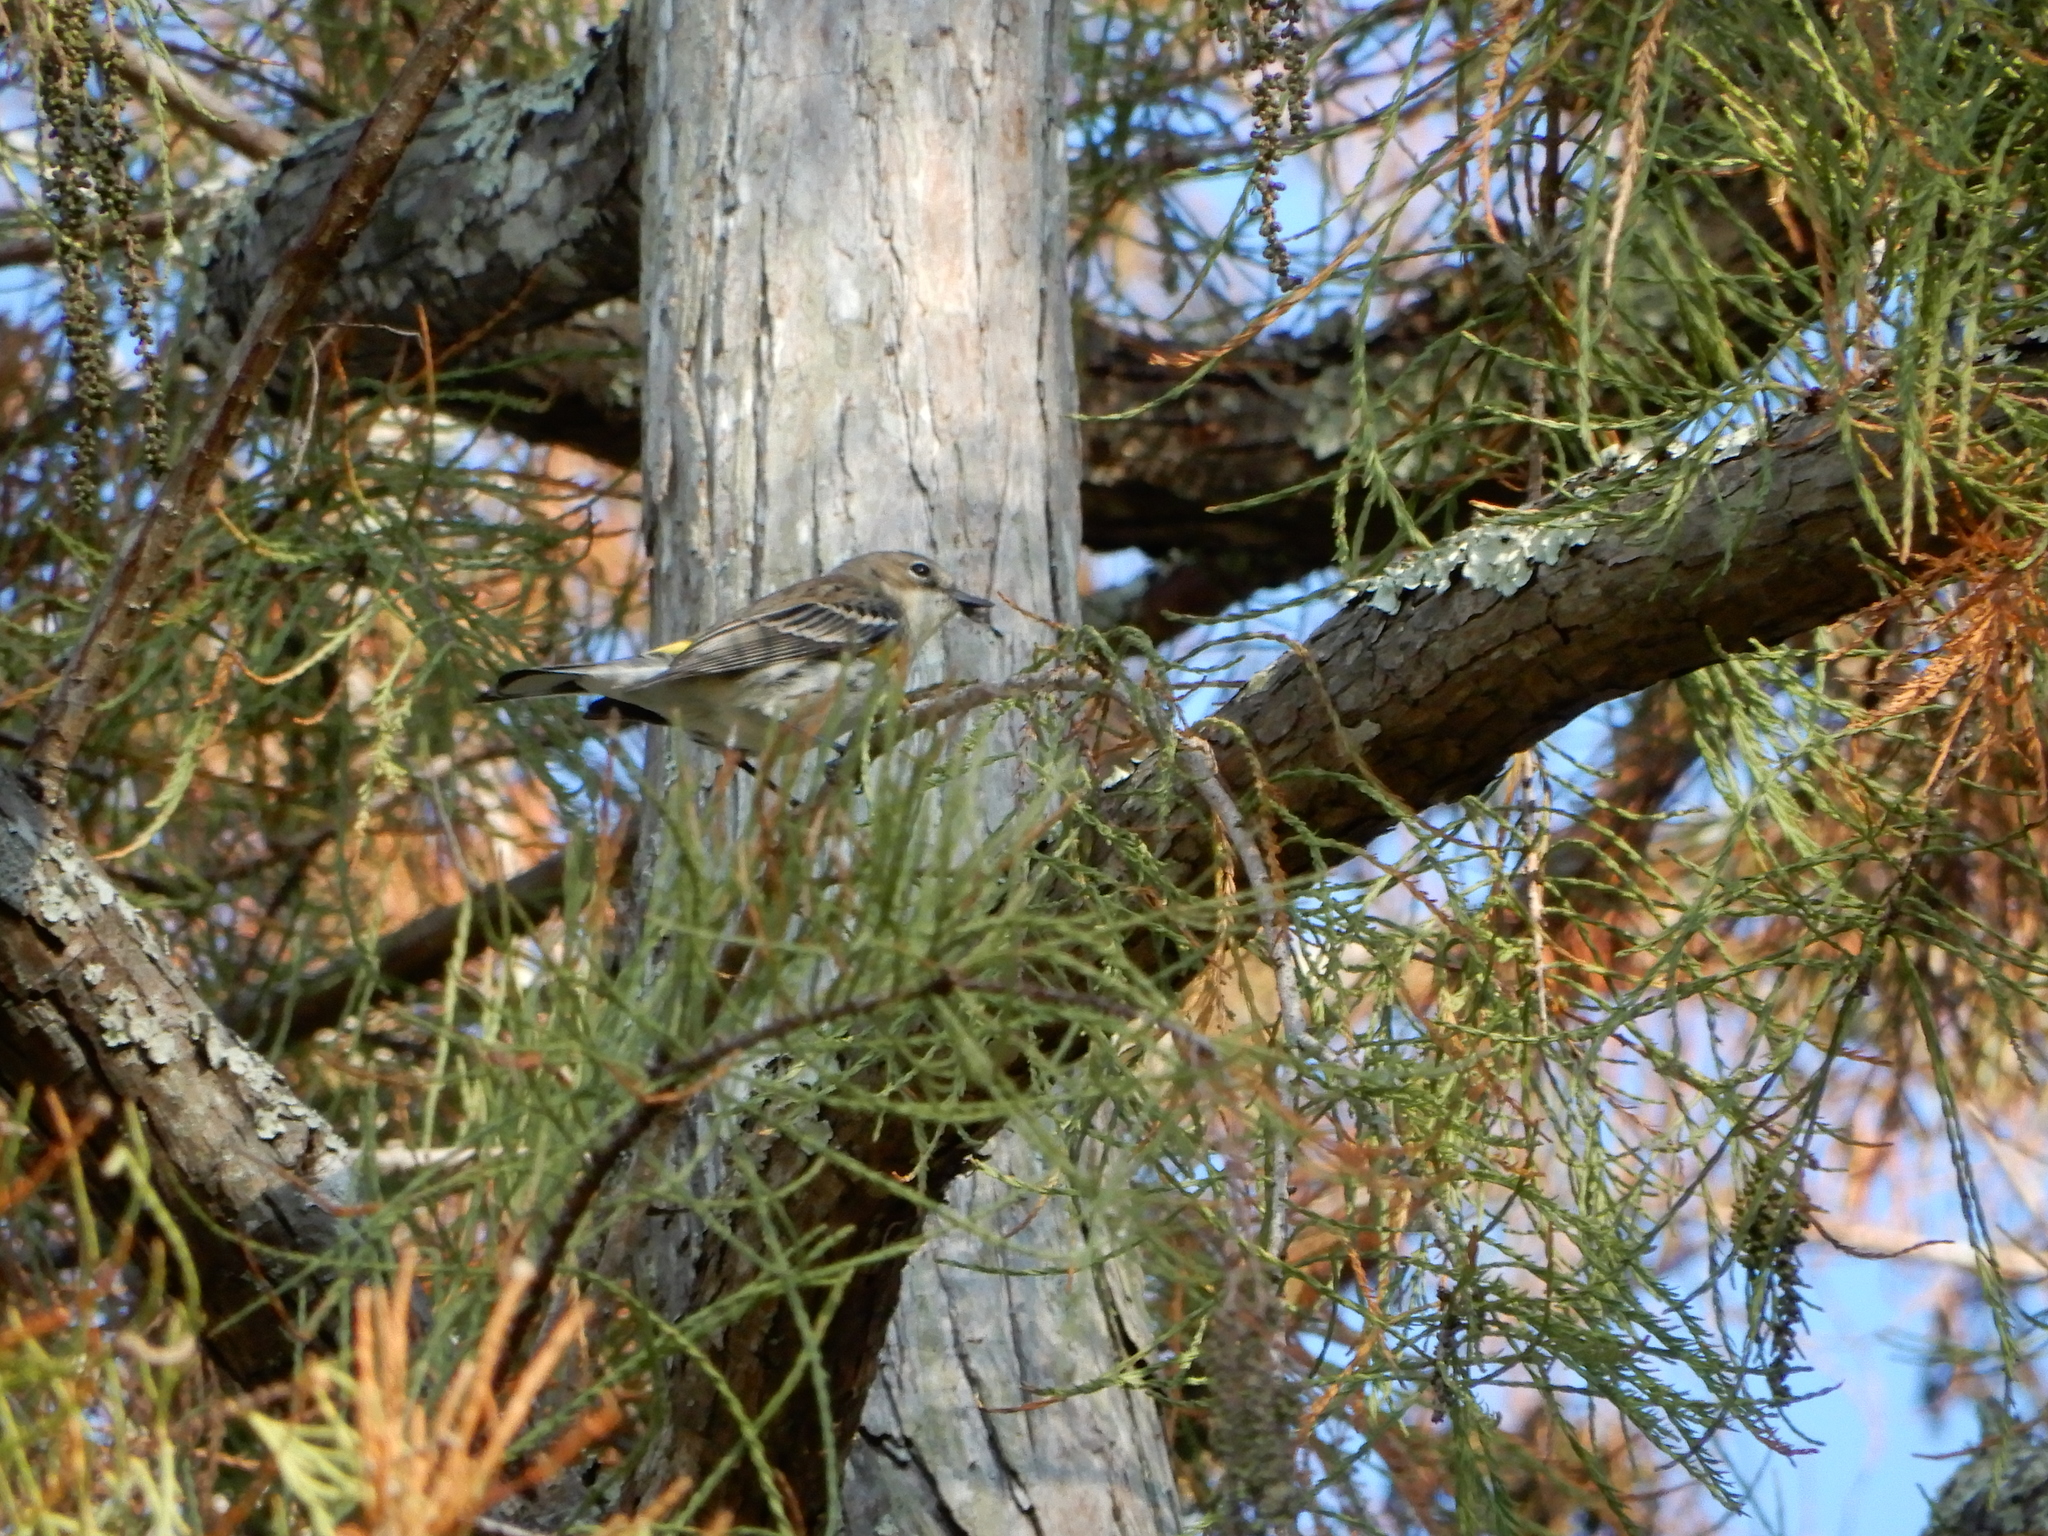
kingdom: Animalia
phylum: Chordata
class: Aves
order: Passeriformes
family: Parulidae
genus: Setophaga
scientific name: Setophaga coronata
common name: Myrtle warbler
